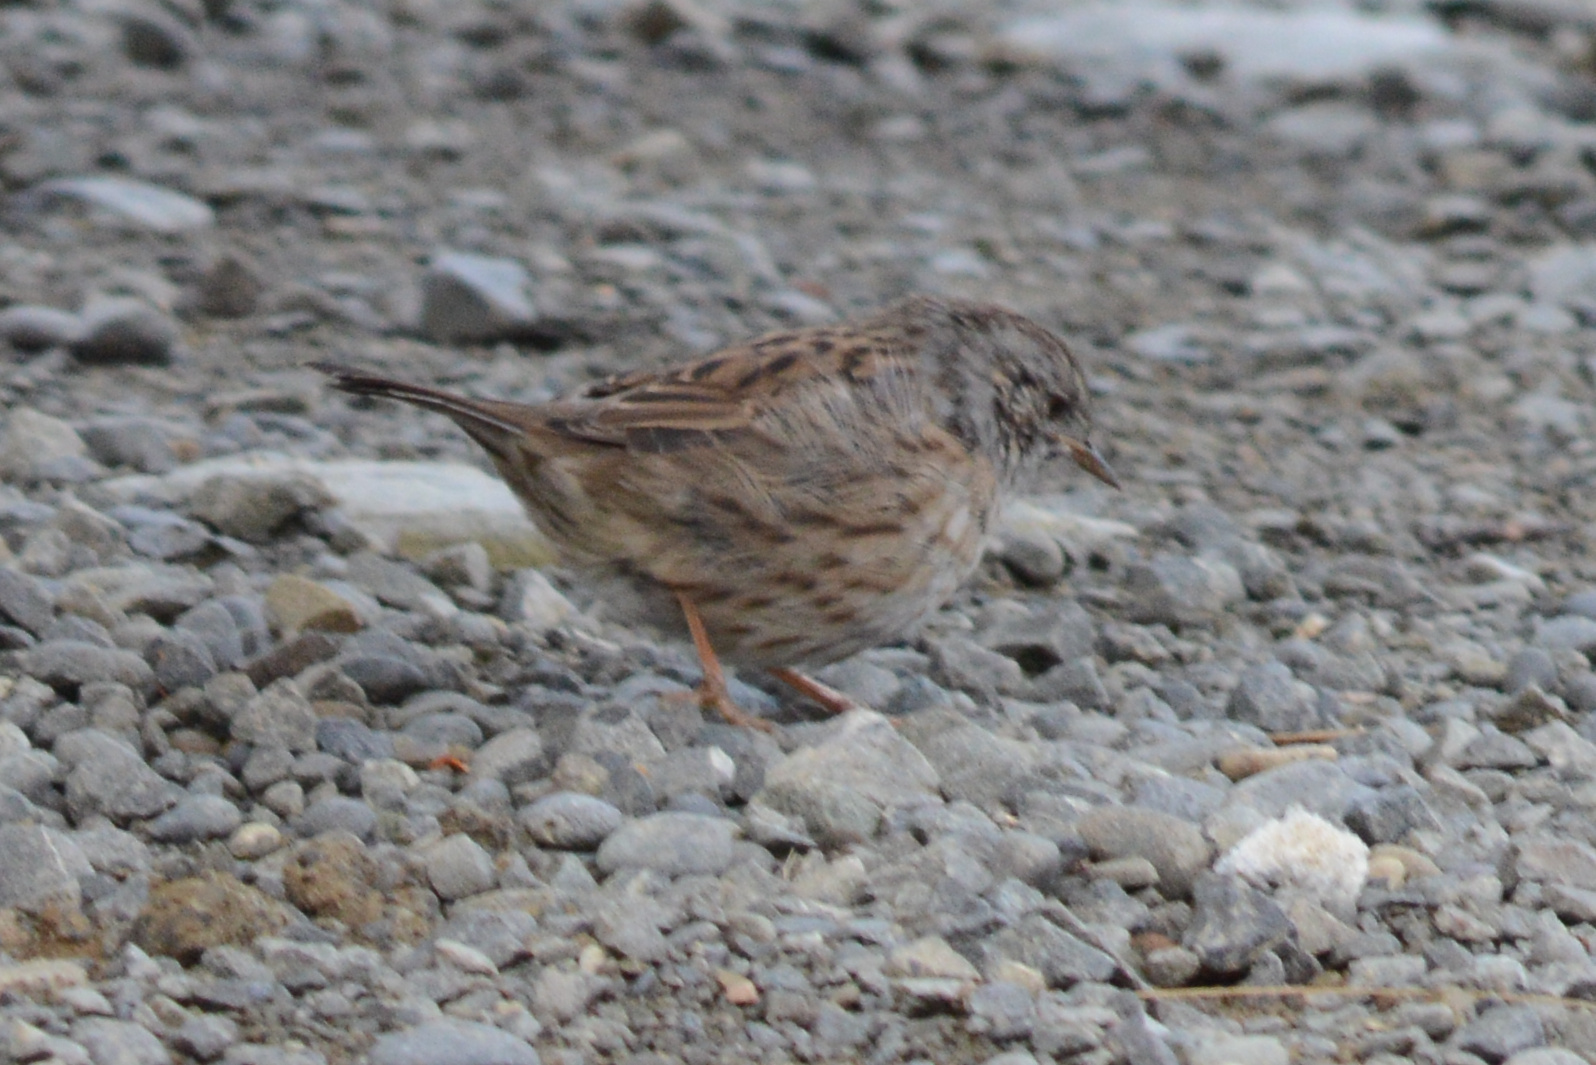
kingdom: Animalia
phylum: Chordata
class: Aves
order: Passeriformes
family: Prunellidae
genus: Prunella
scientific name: Prunella modularis
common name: Dunnock
